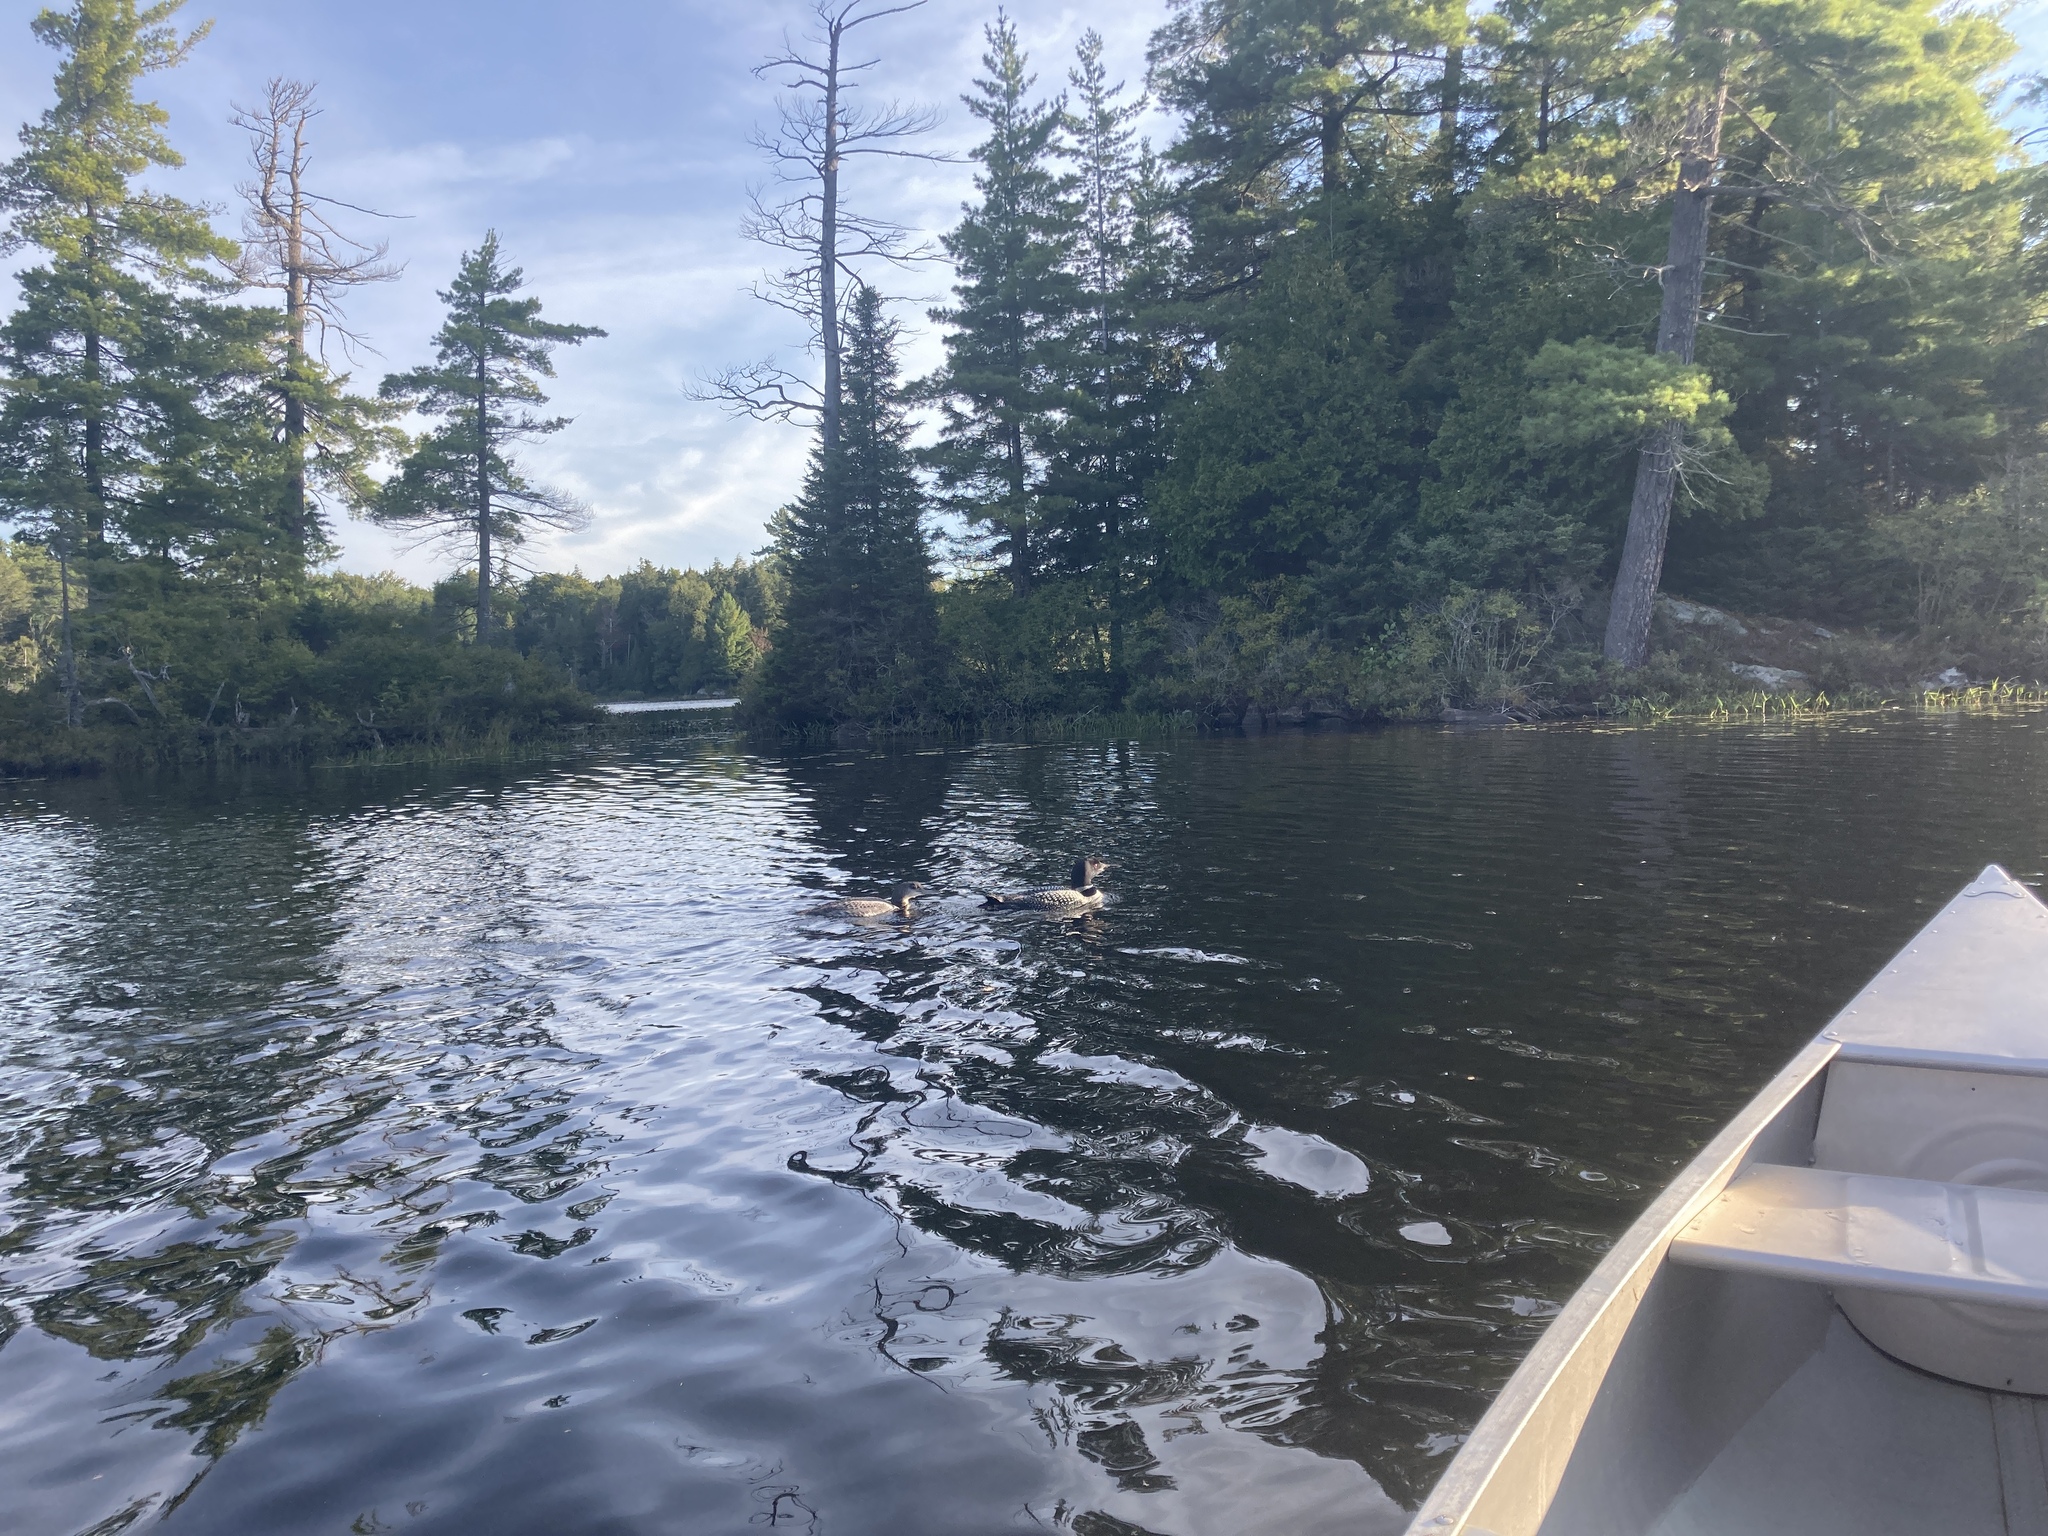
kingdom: Animalia
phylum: Chordata
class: Aves
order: Gaviiformes
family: Gaviidae
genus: Gavia
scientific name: Gavia immer
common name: Common loon
